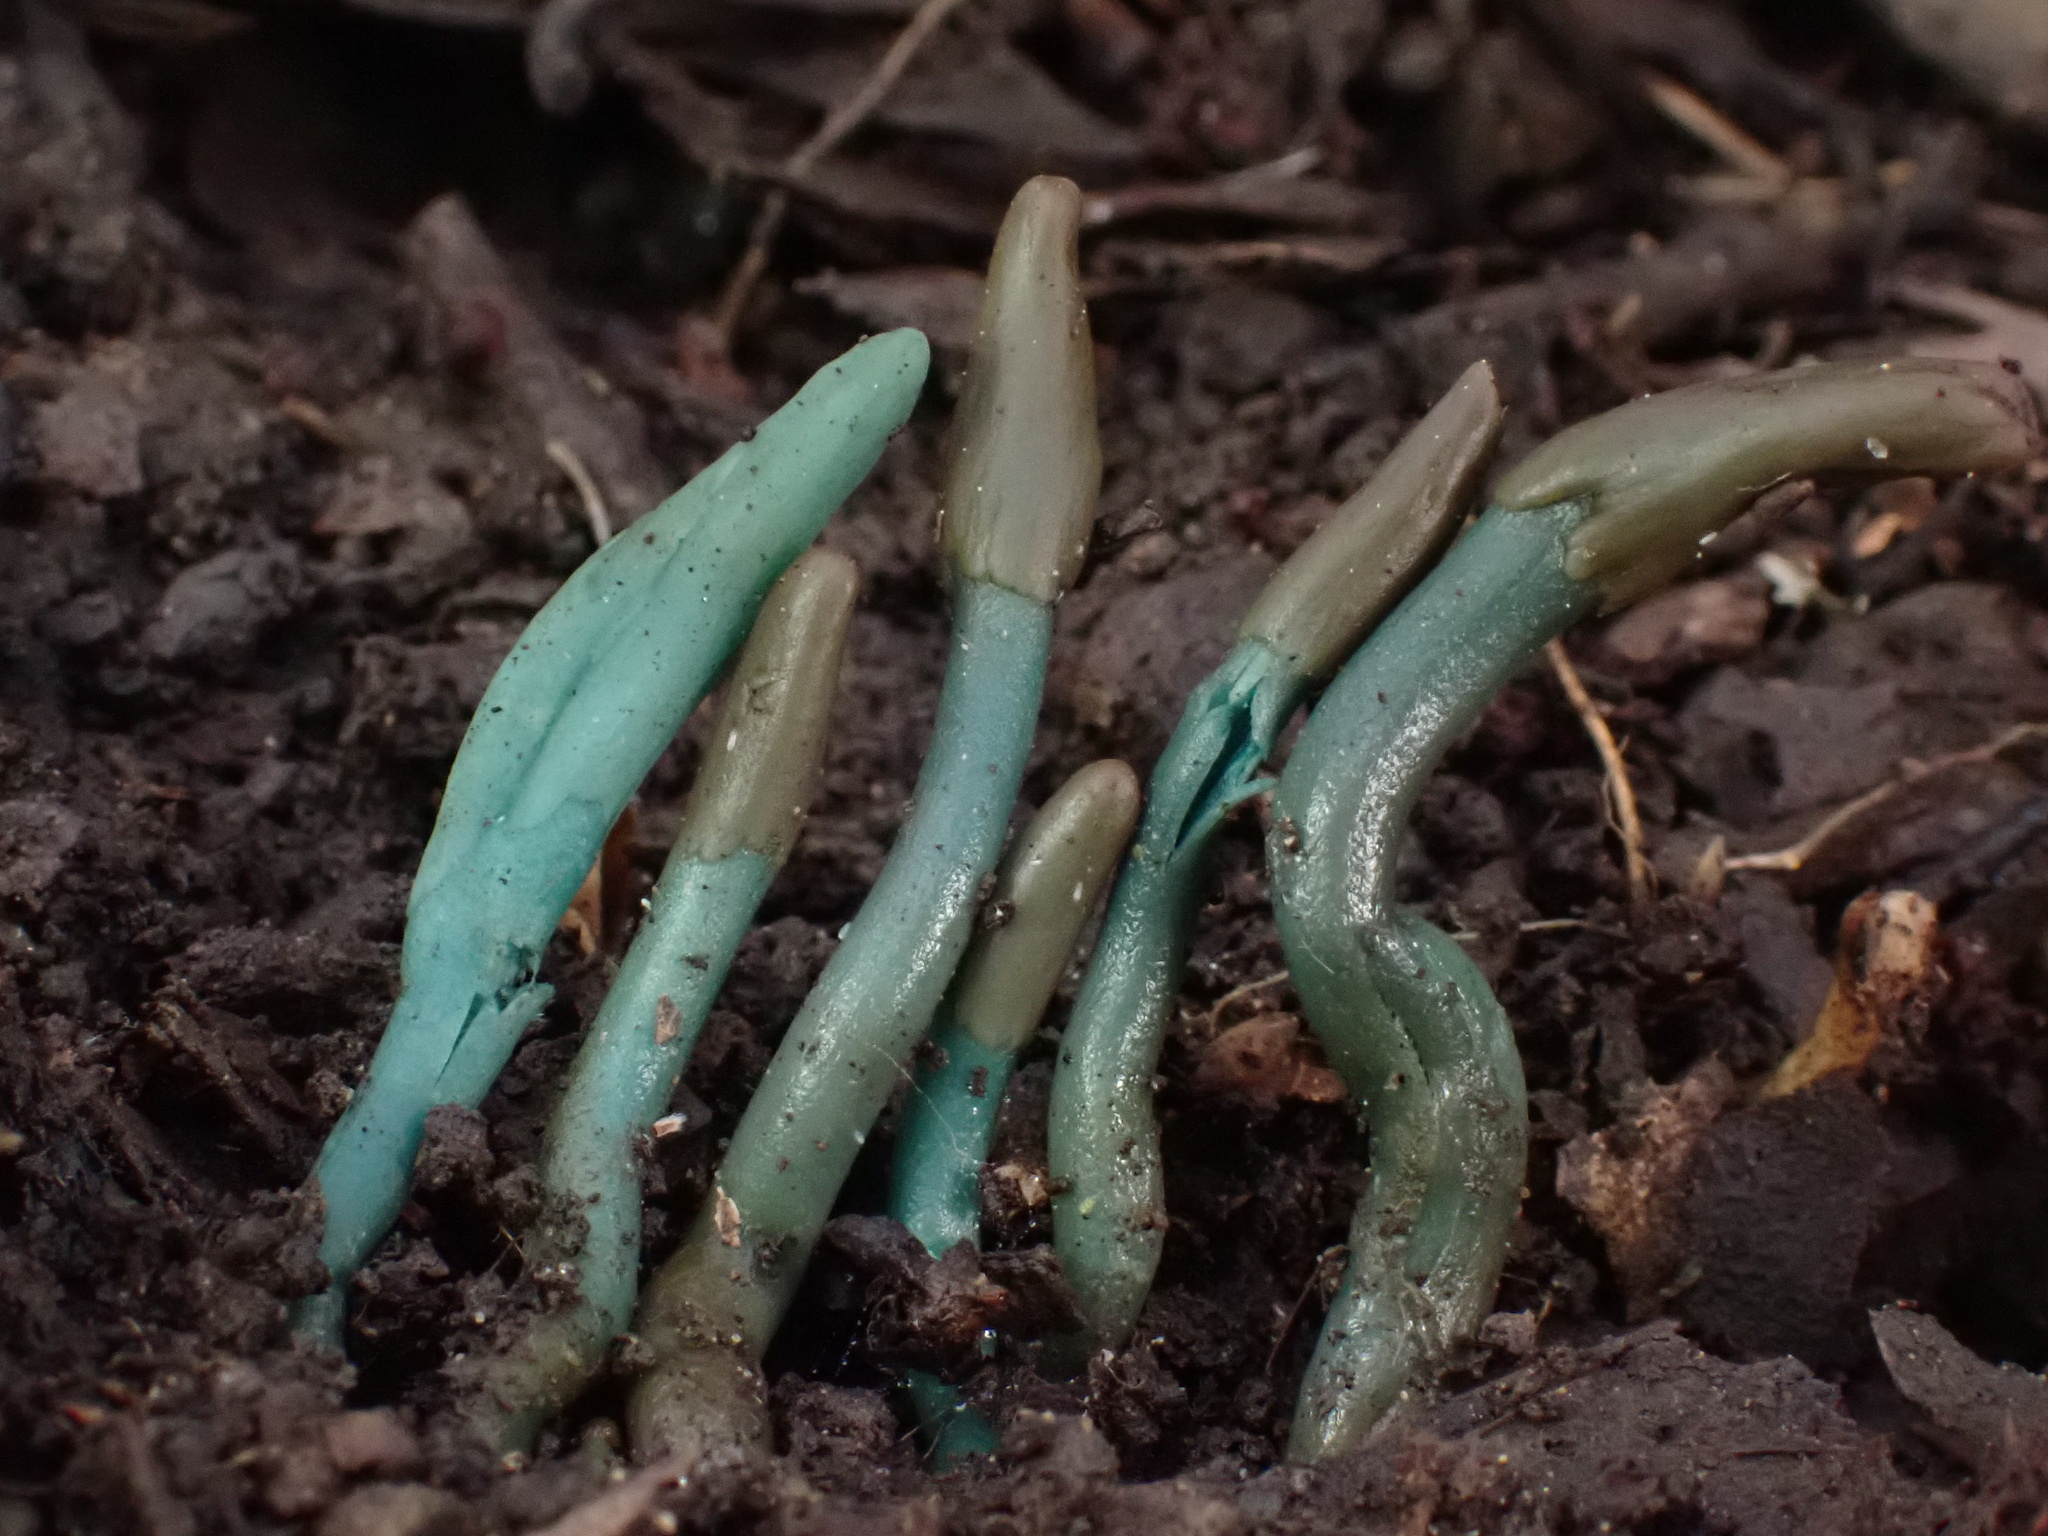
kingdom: Fungi
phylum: Ascomycota
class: Leotiomycetes
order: Leotiales
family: Leotiaceae
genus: Microglossum
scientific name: Microglossum viride
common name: Green earthtongue
